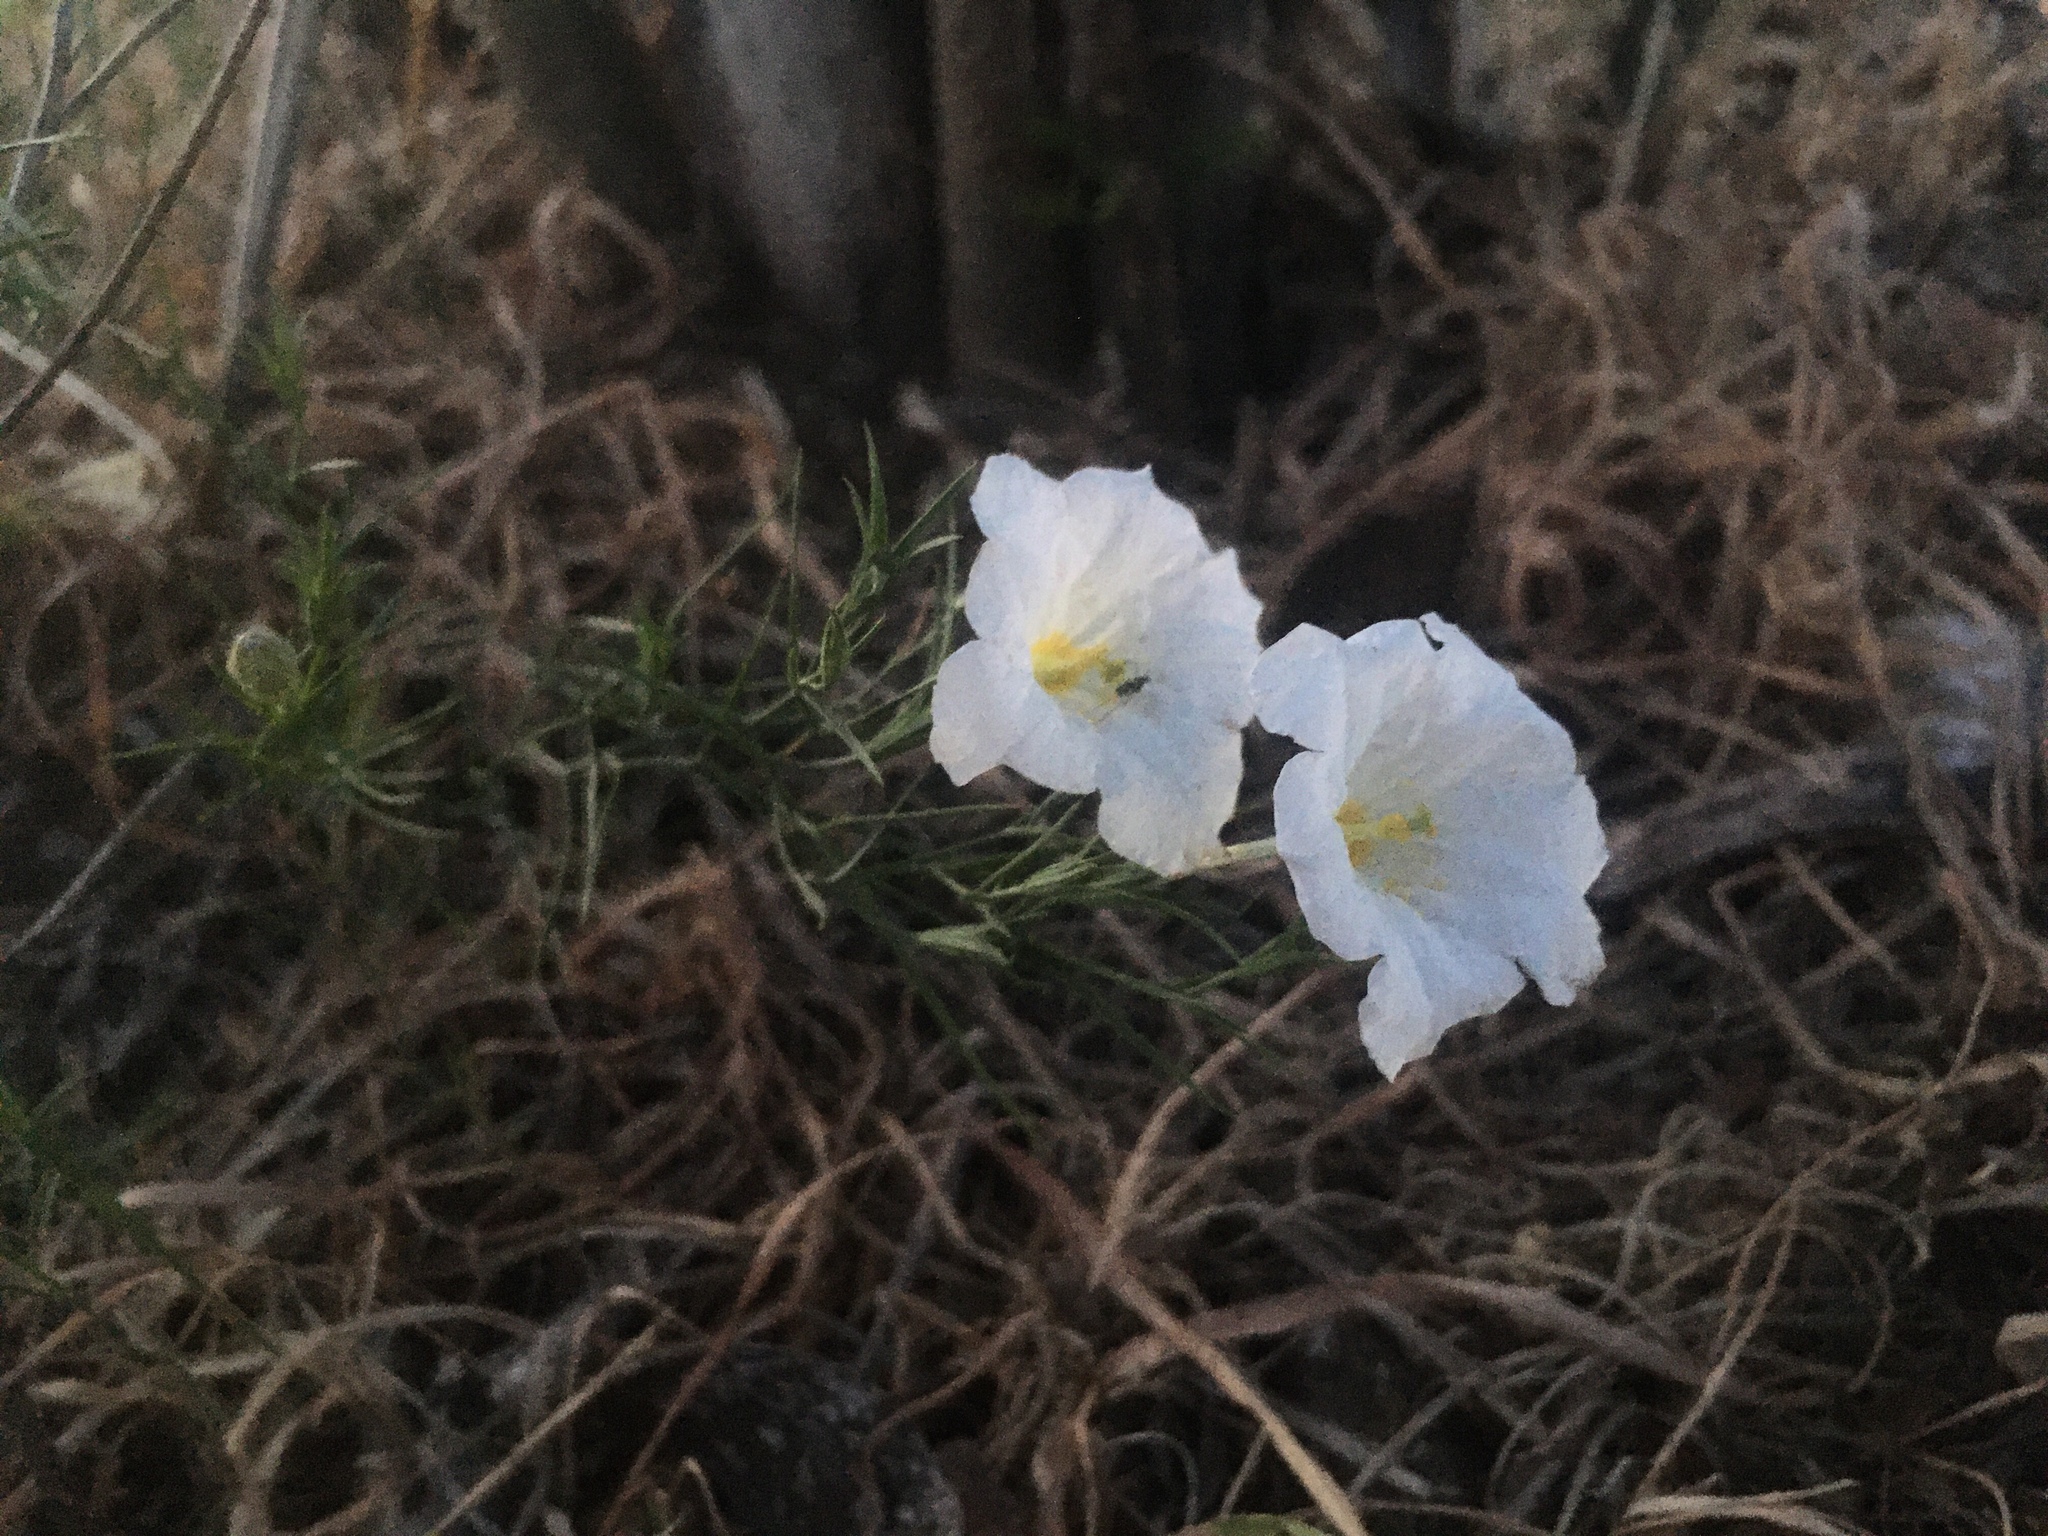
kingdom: Plantae
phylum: Tracheophyta
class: Magnoliopsida
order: Solanales
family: Solanaceae
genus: Nierembergia
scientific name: Nierembergia rigida
